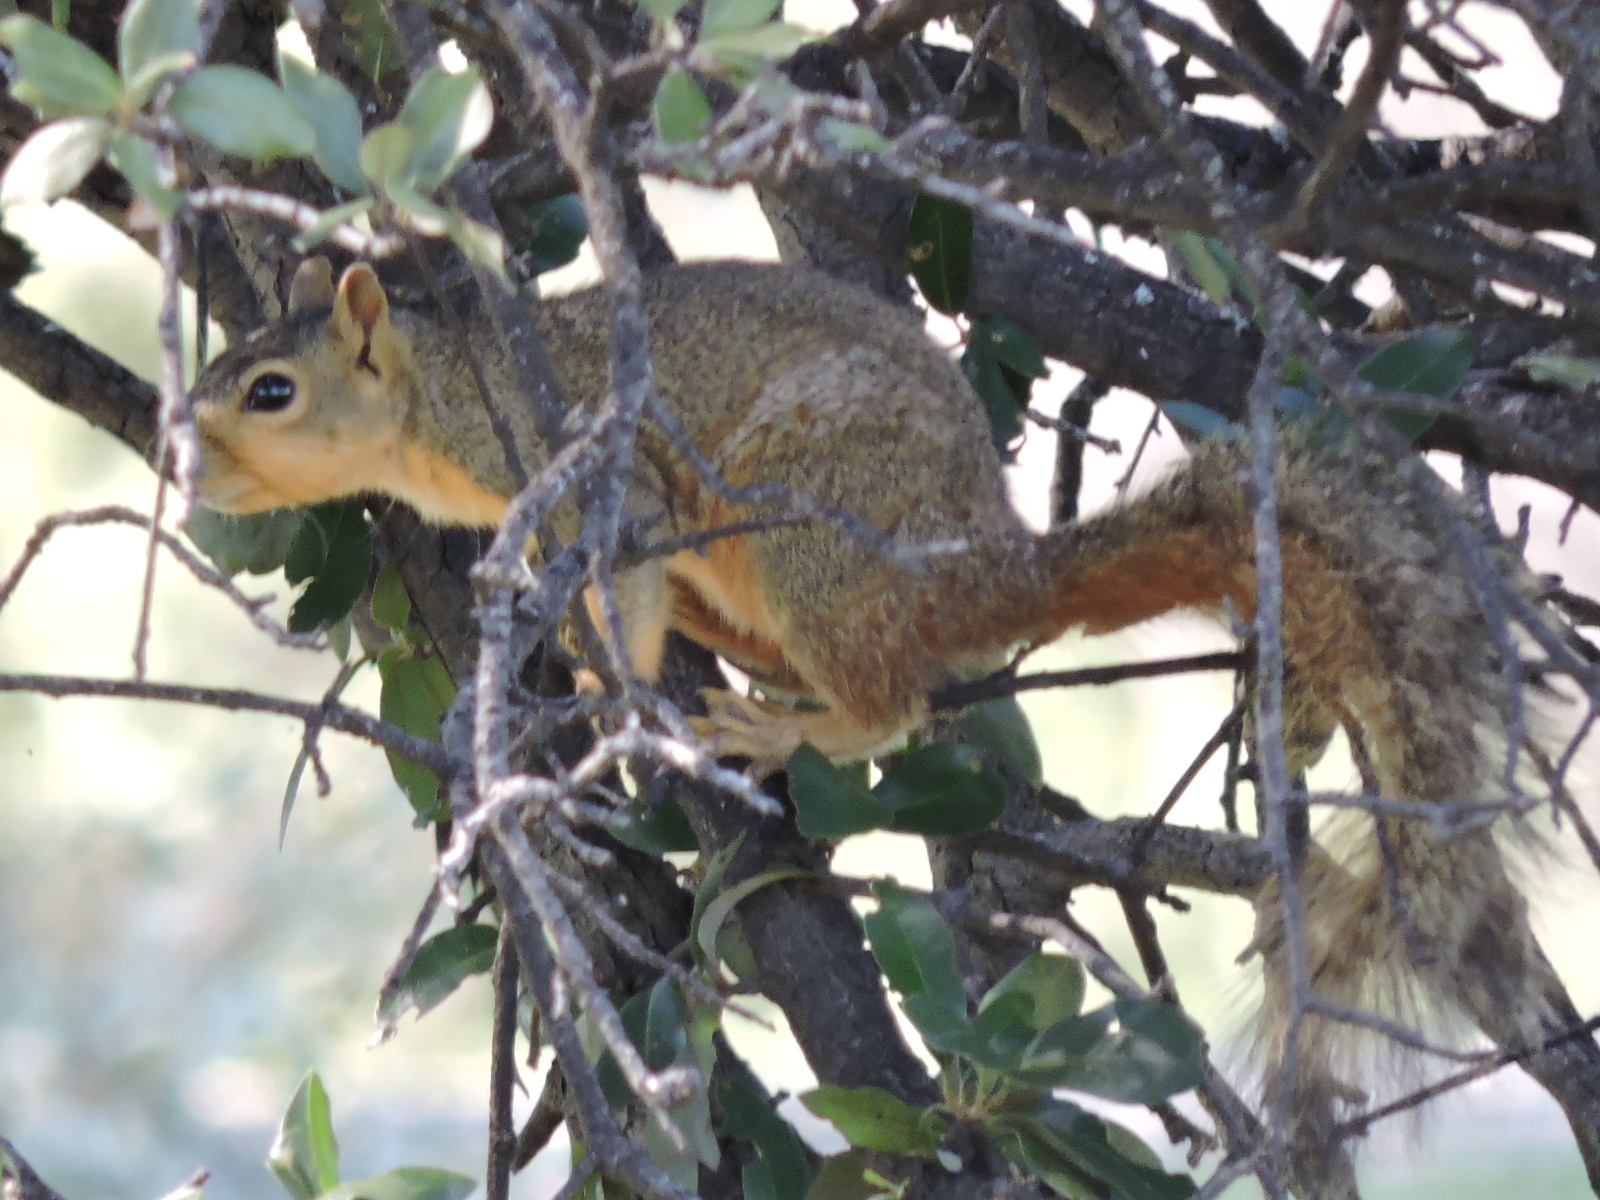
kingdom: Animalia
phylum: Chordata
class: Mammalia
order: Rodentia
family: Sciuridae
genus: Sciurus
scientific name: Sciurus niger
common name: Fox squirrel
